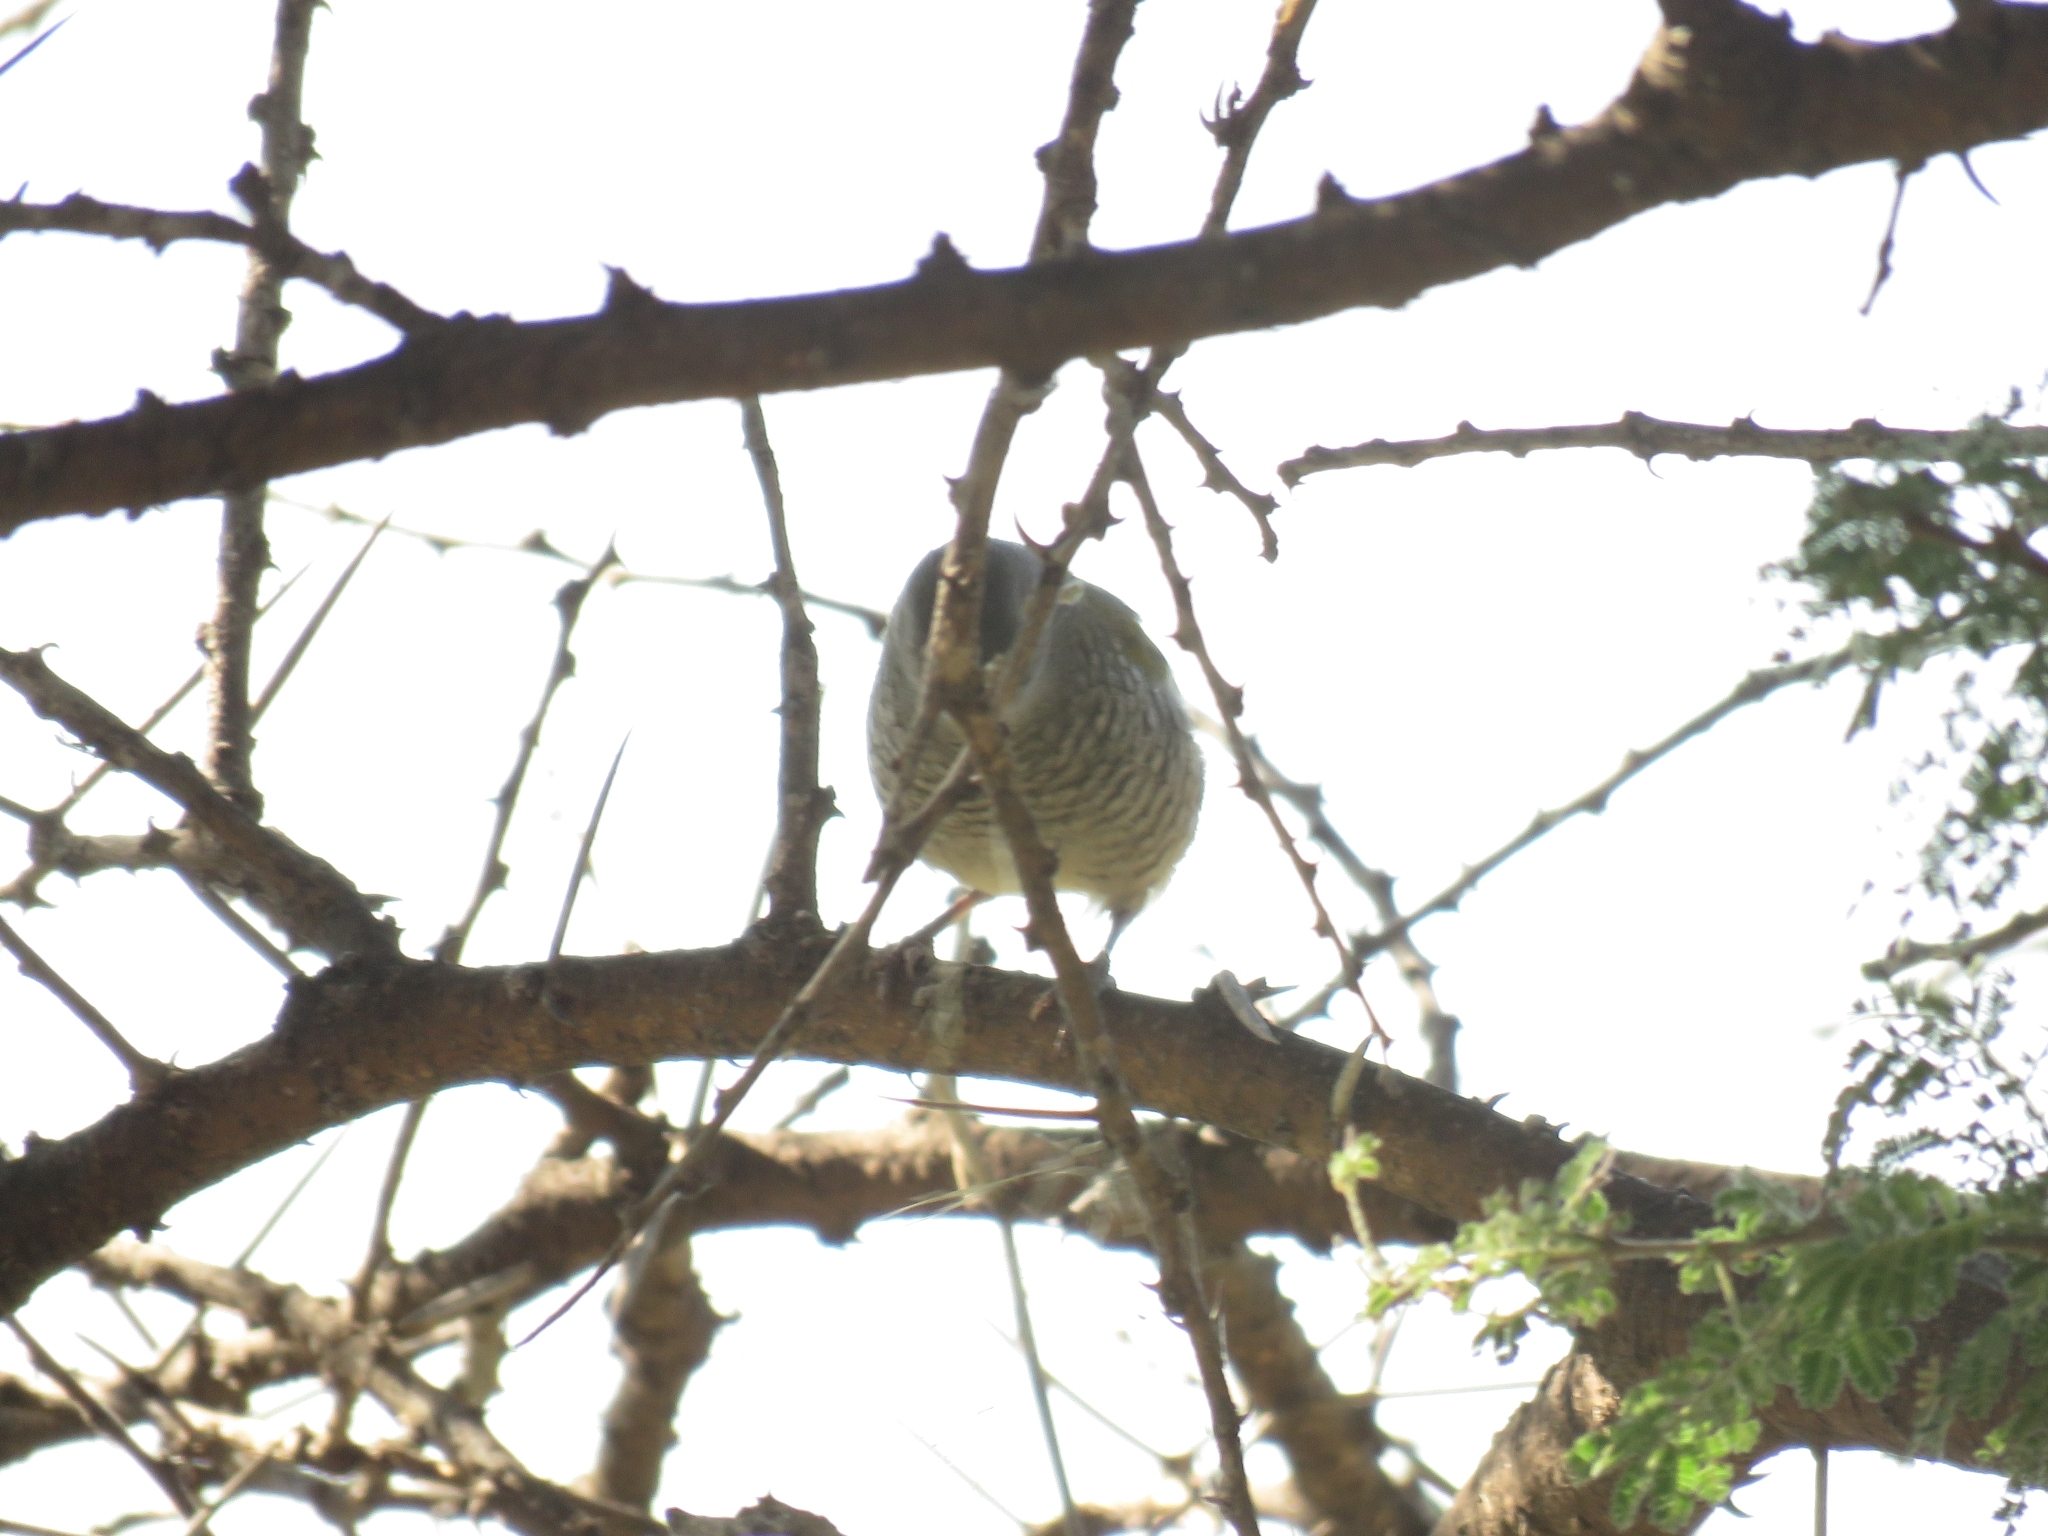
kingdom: Animalia
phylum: Chordata
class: Aves
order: Passeriformes
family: Estrildidae
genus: Pytilia
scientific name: Pytilia melba
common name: Green-winged pytilia
